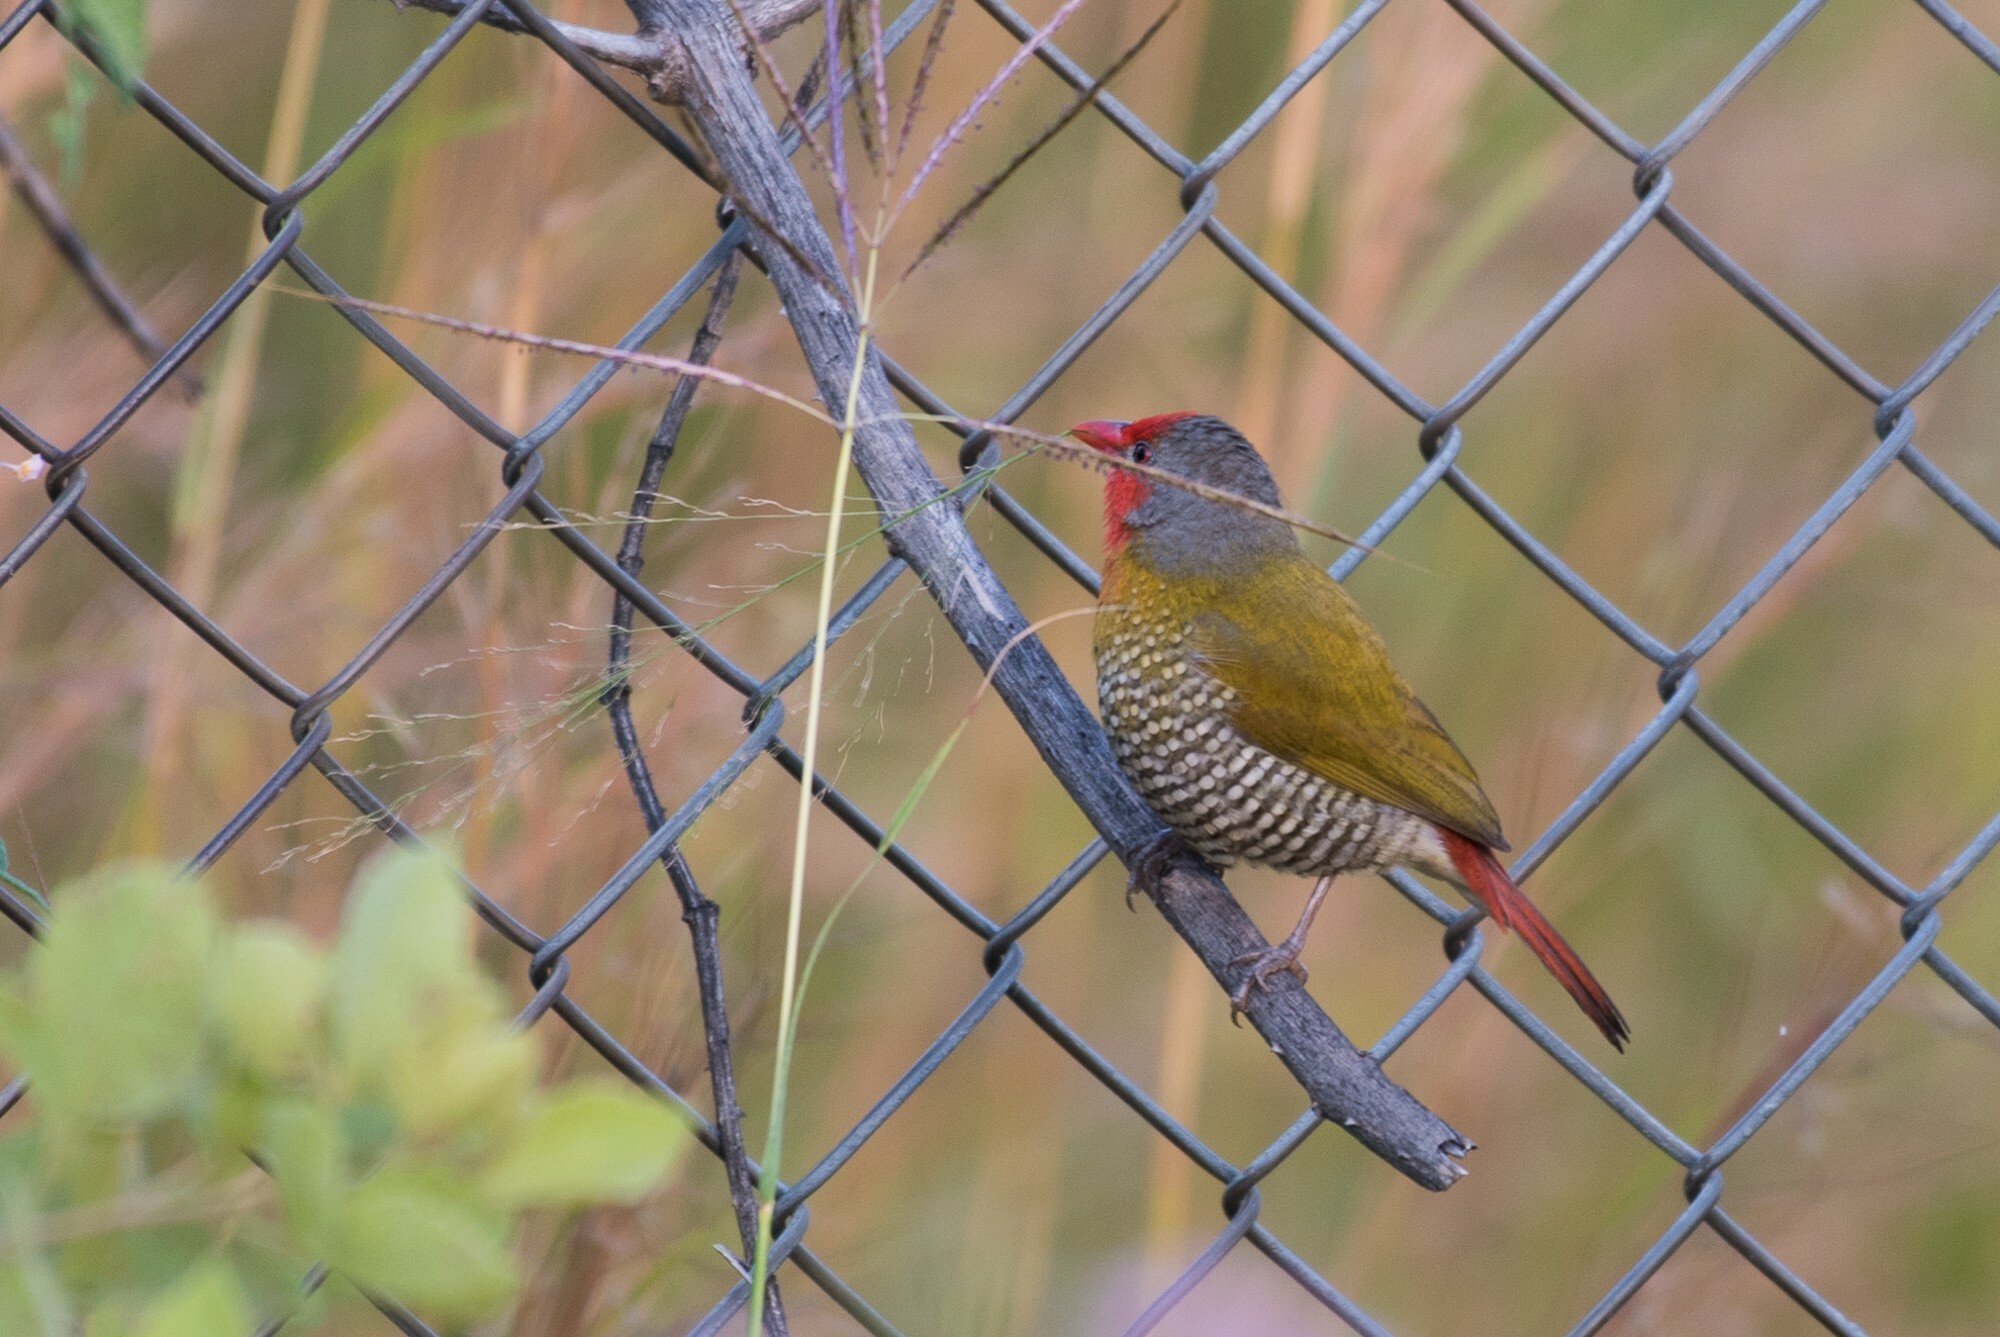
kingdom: Animalia
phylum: Chordata
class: Aves
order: Passeriformes
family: Estrildidae
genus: Pytilia
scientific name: Pytilia melba
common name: Green-winged pytilia
